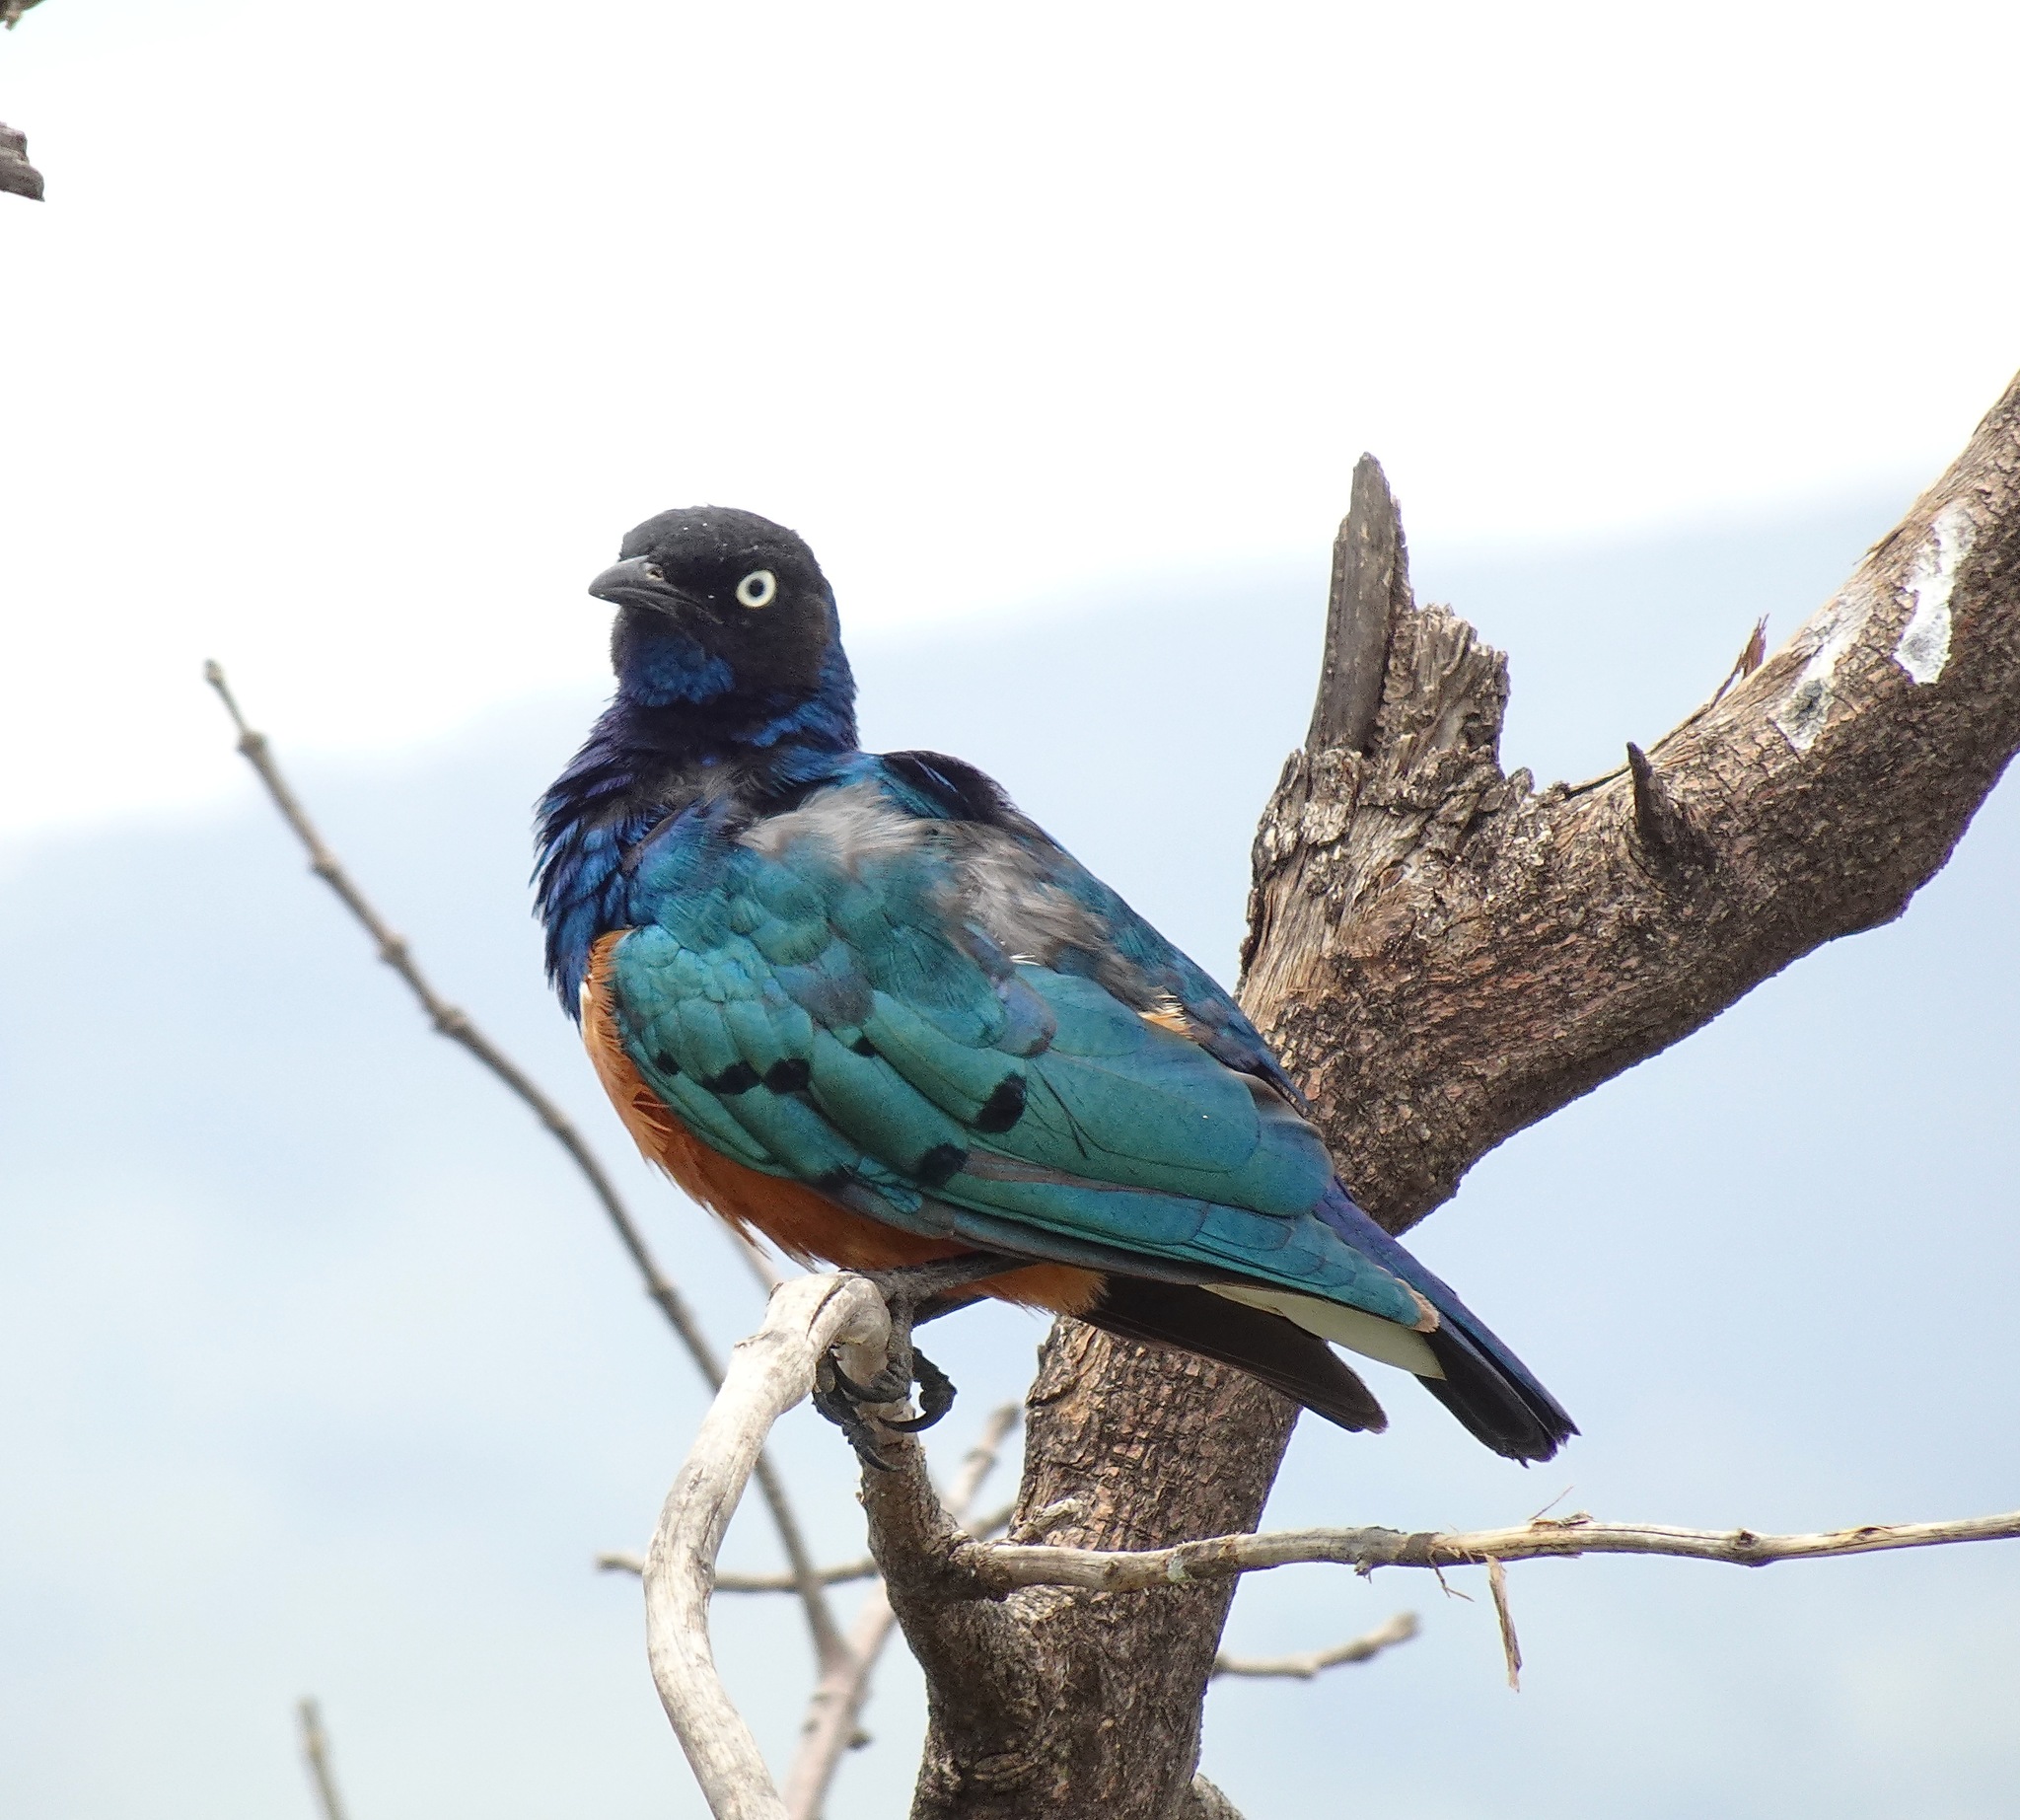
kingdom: Animalia
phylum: Chordata
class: Aves
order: Passeriformes
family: Sturnidae
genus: Lamprotornis
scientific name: Lamprotornis superbus
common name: Superb starling
